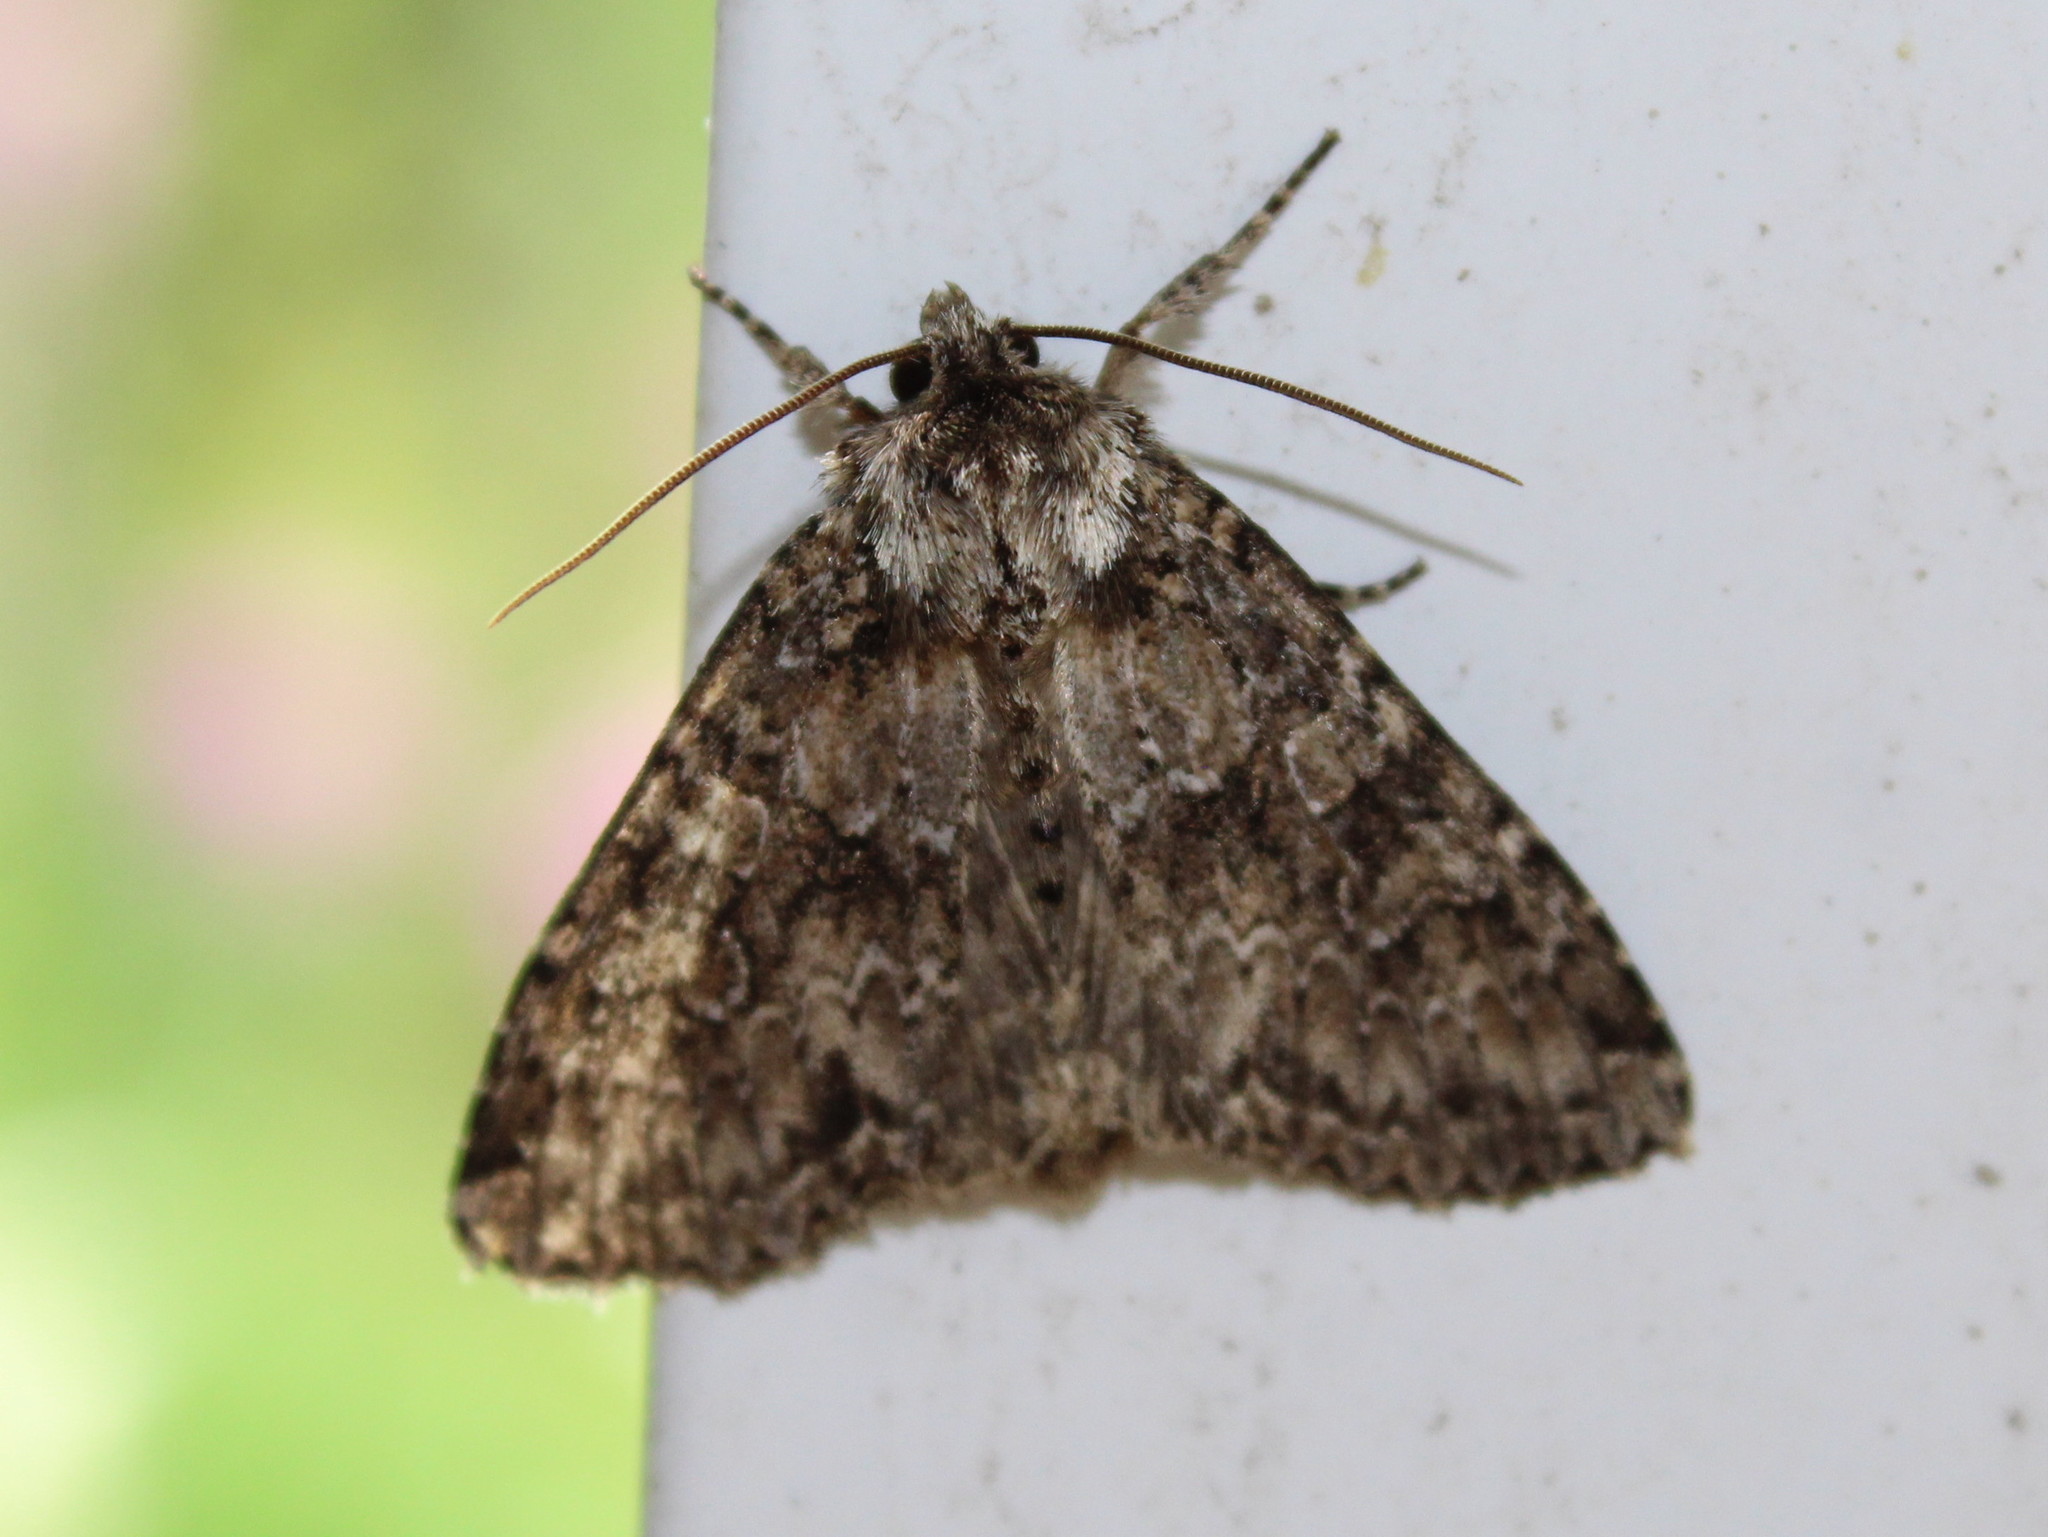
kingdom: Animalia
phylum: Arthropoda
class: Insecta
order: Lepidoptera
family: Noctuidae
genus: Polia
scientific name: Polia imbrifera
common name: Cloudy arches moth
